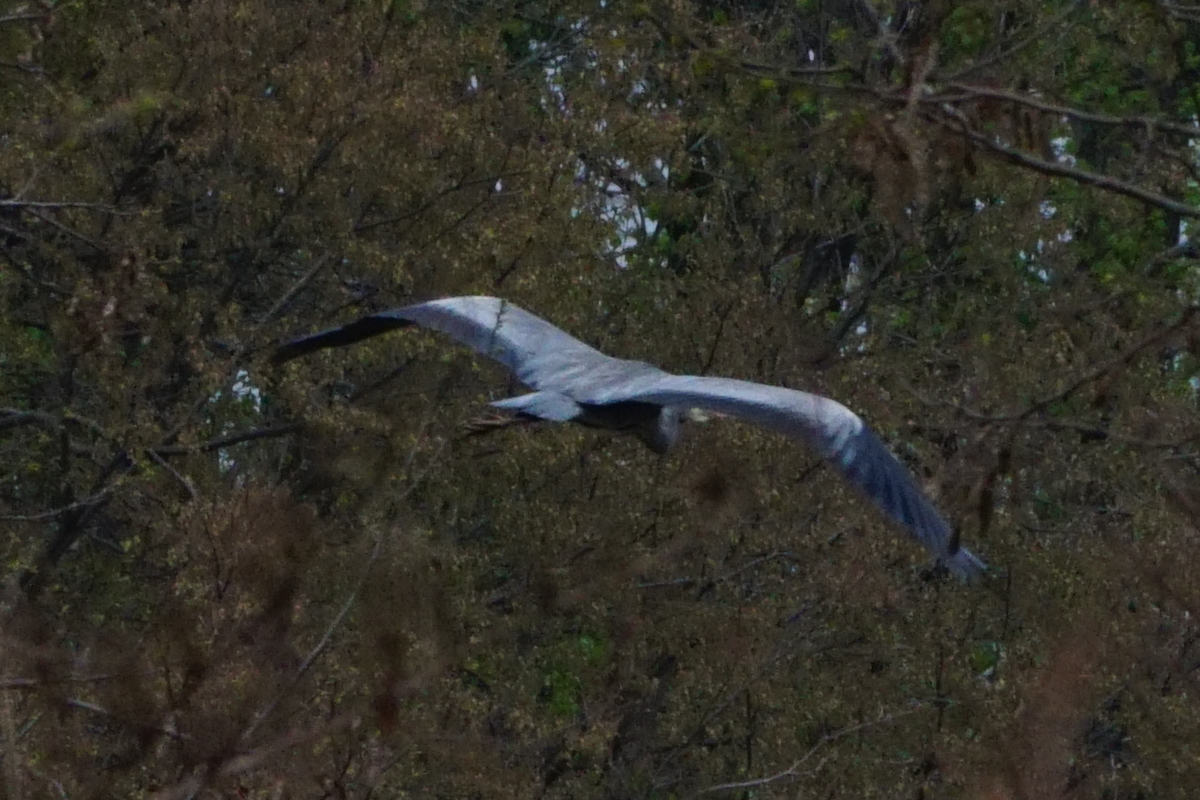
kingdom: Animalia
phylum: Chordata
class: Aves
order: Pelecaniformes
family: Ardeidae
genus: Ardea
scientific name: Ardea cinerea
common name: Grey heron
